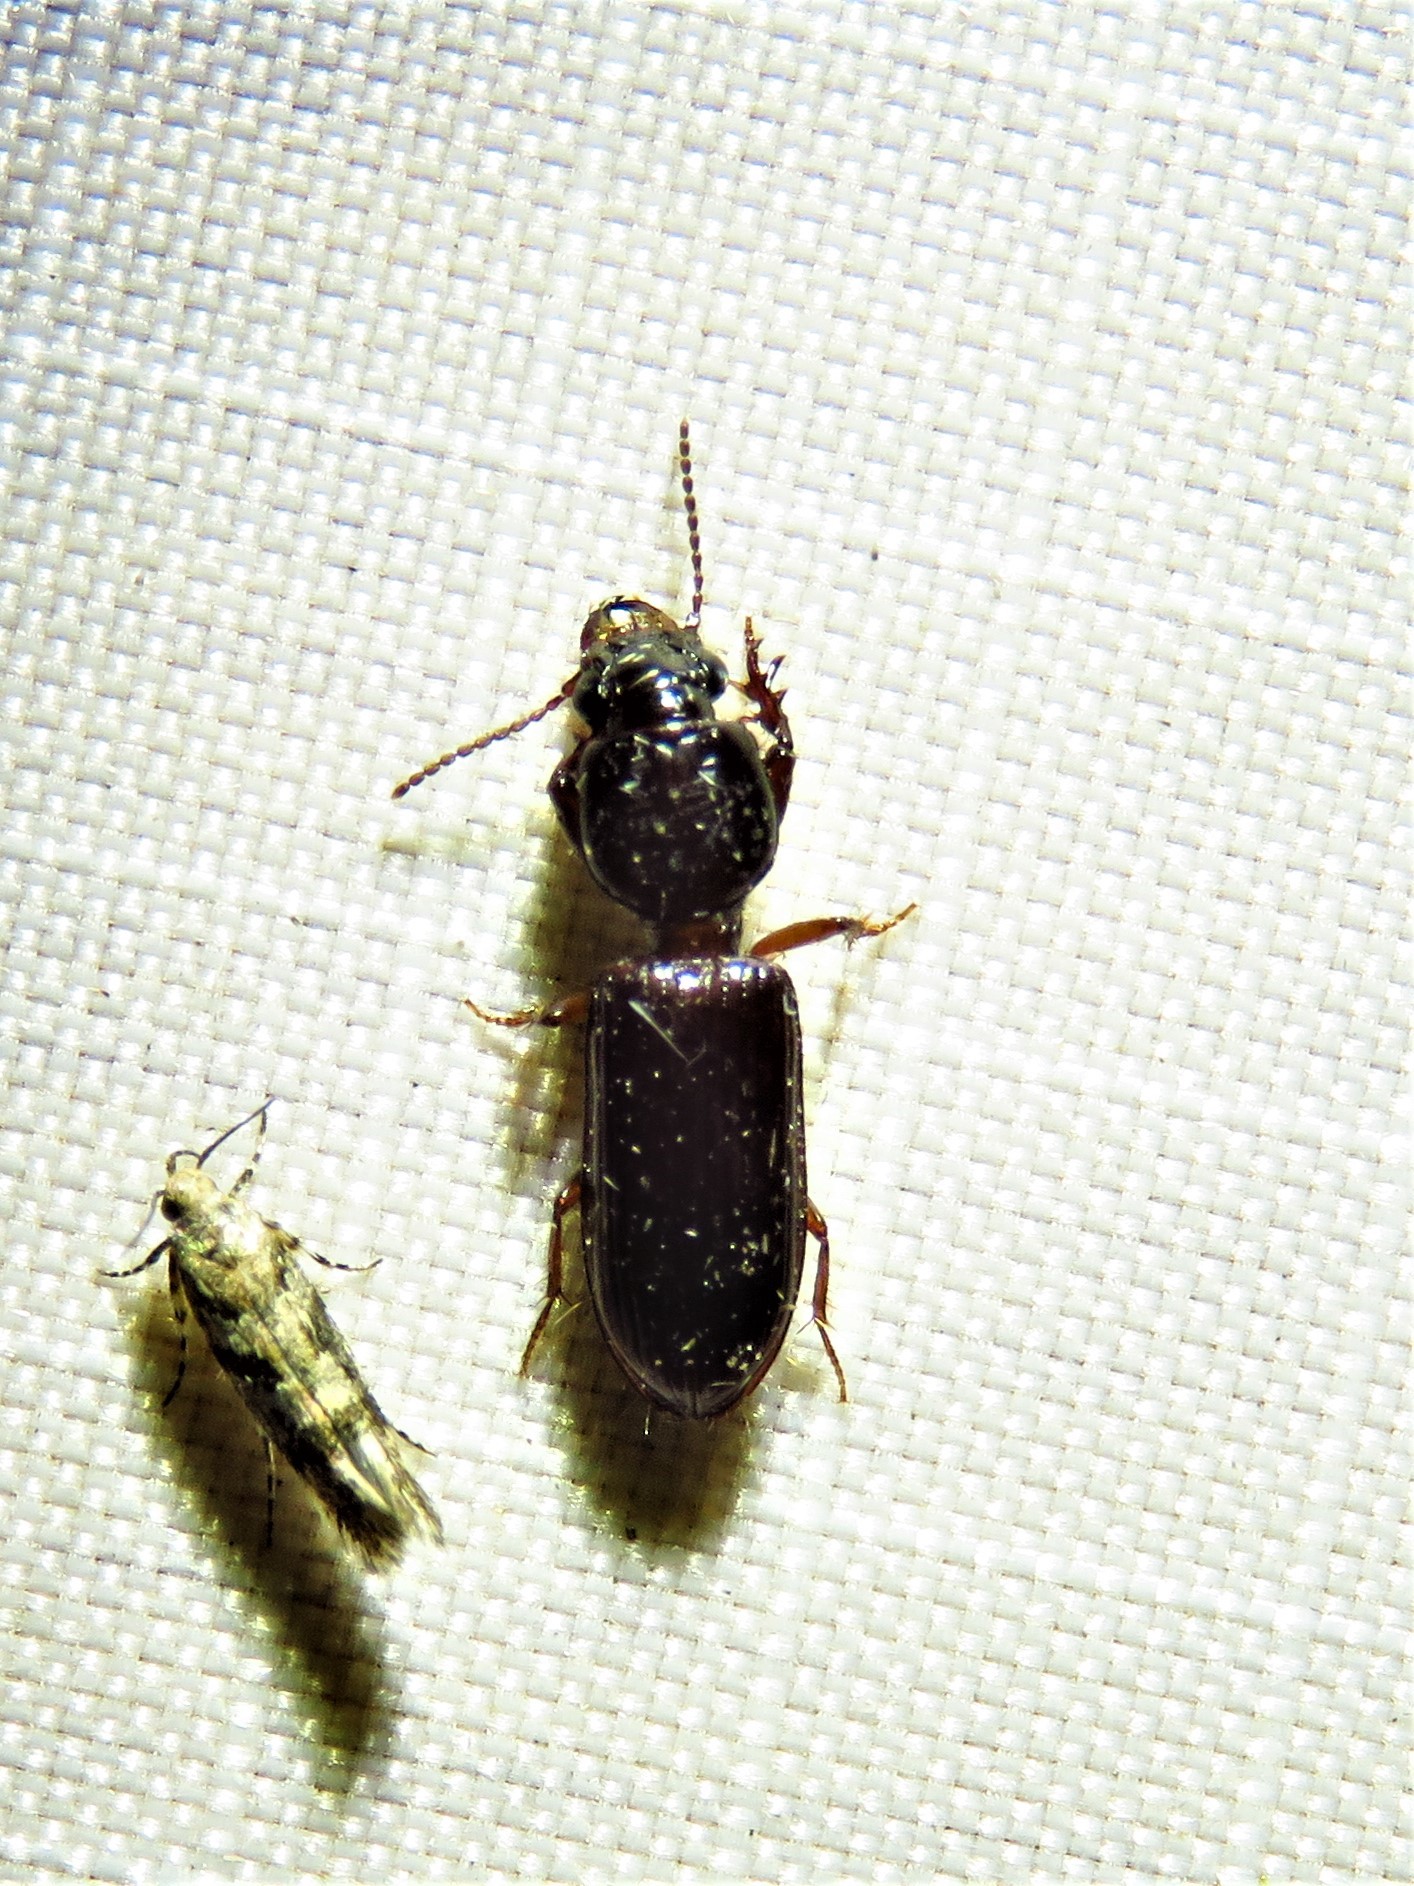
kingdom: Animalia
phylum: Arthropoda
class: Insecta
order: Coleoptera
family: Carabidae
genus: Semiclivina
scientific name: Semiclivina dentipes
